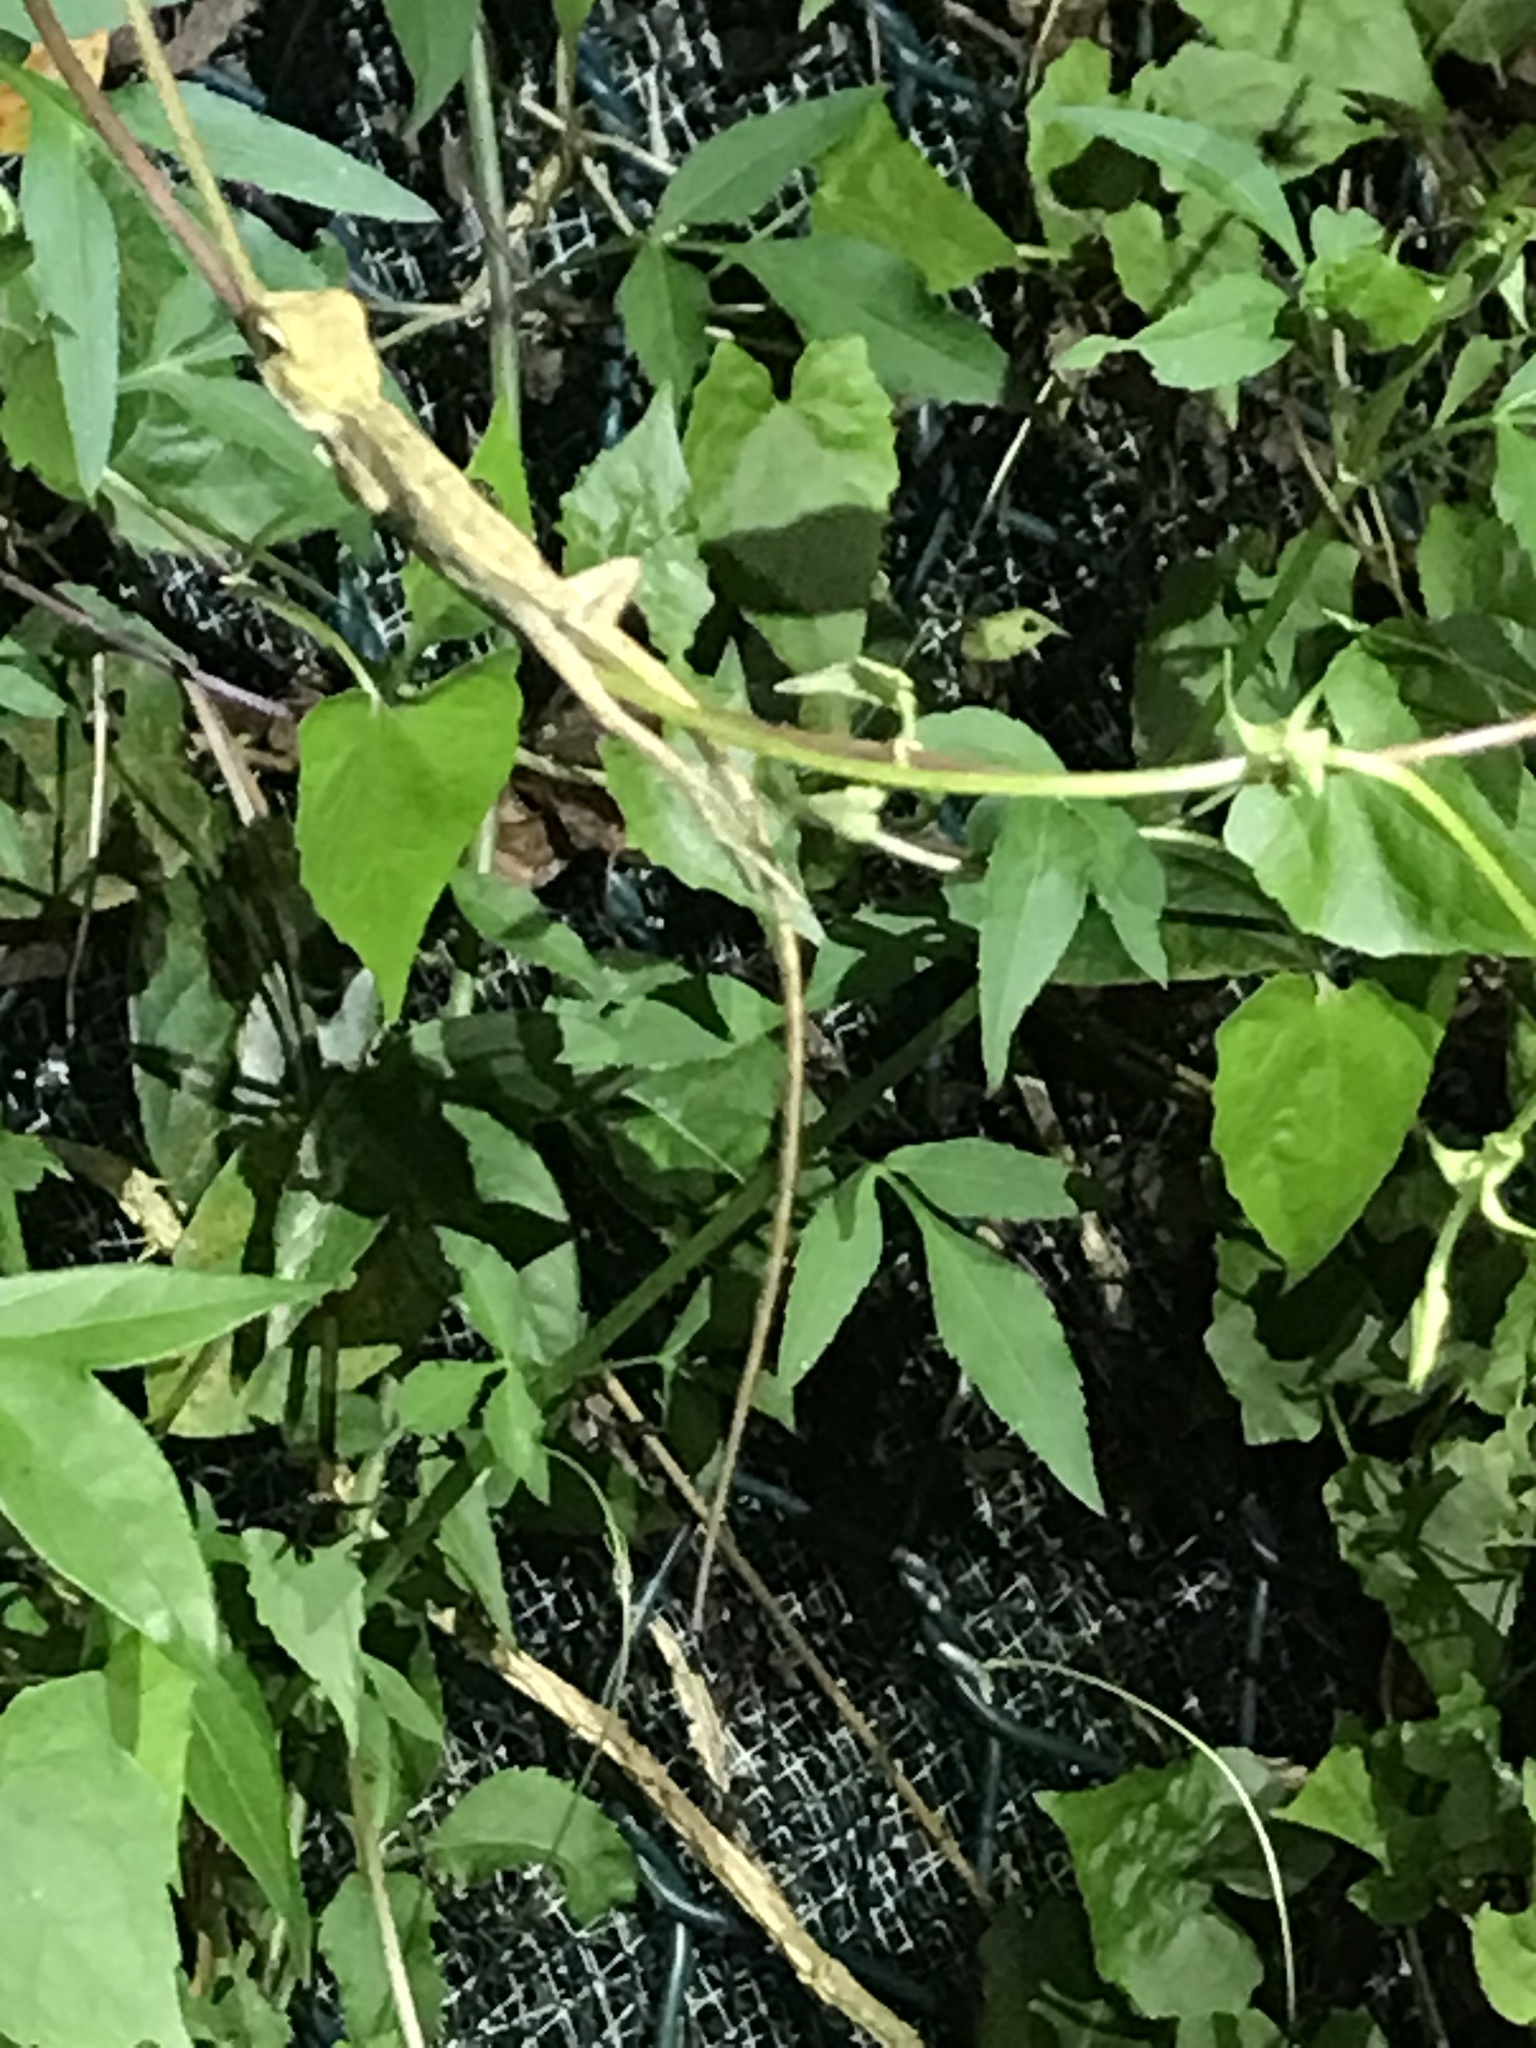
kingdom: Animalia
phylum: Chordata
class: Squamata
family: Agamidae
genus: Calotes
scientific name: Calotes versicolor
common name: Oriental garden lizard
